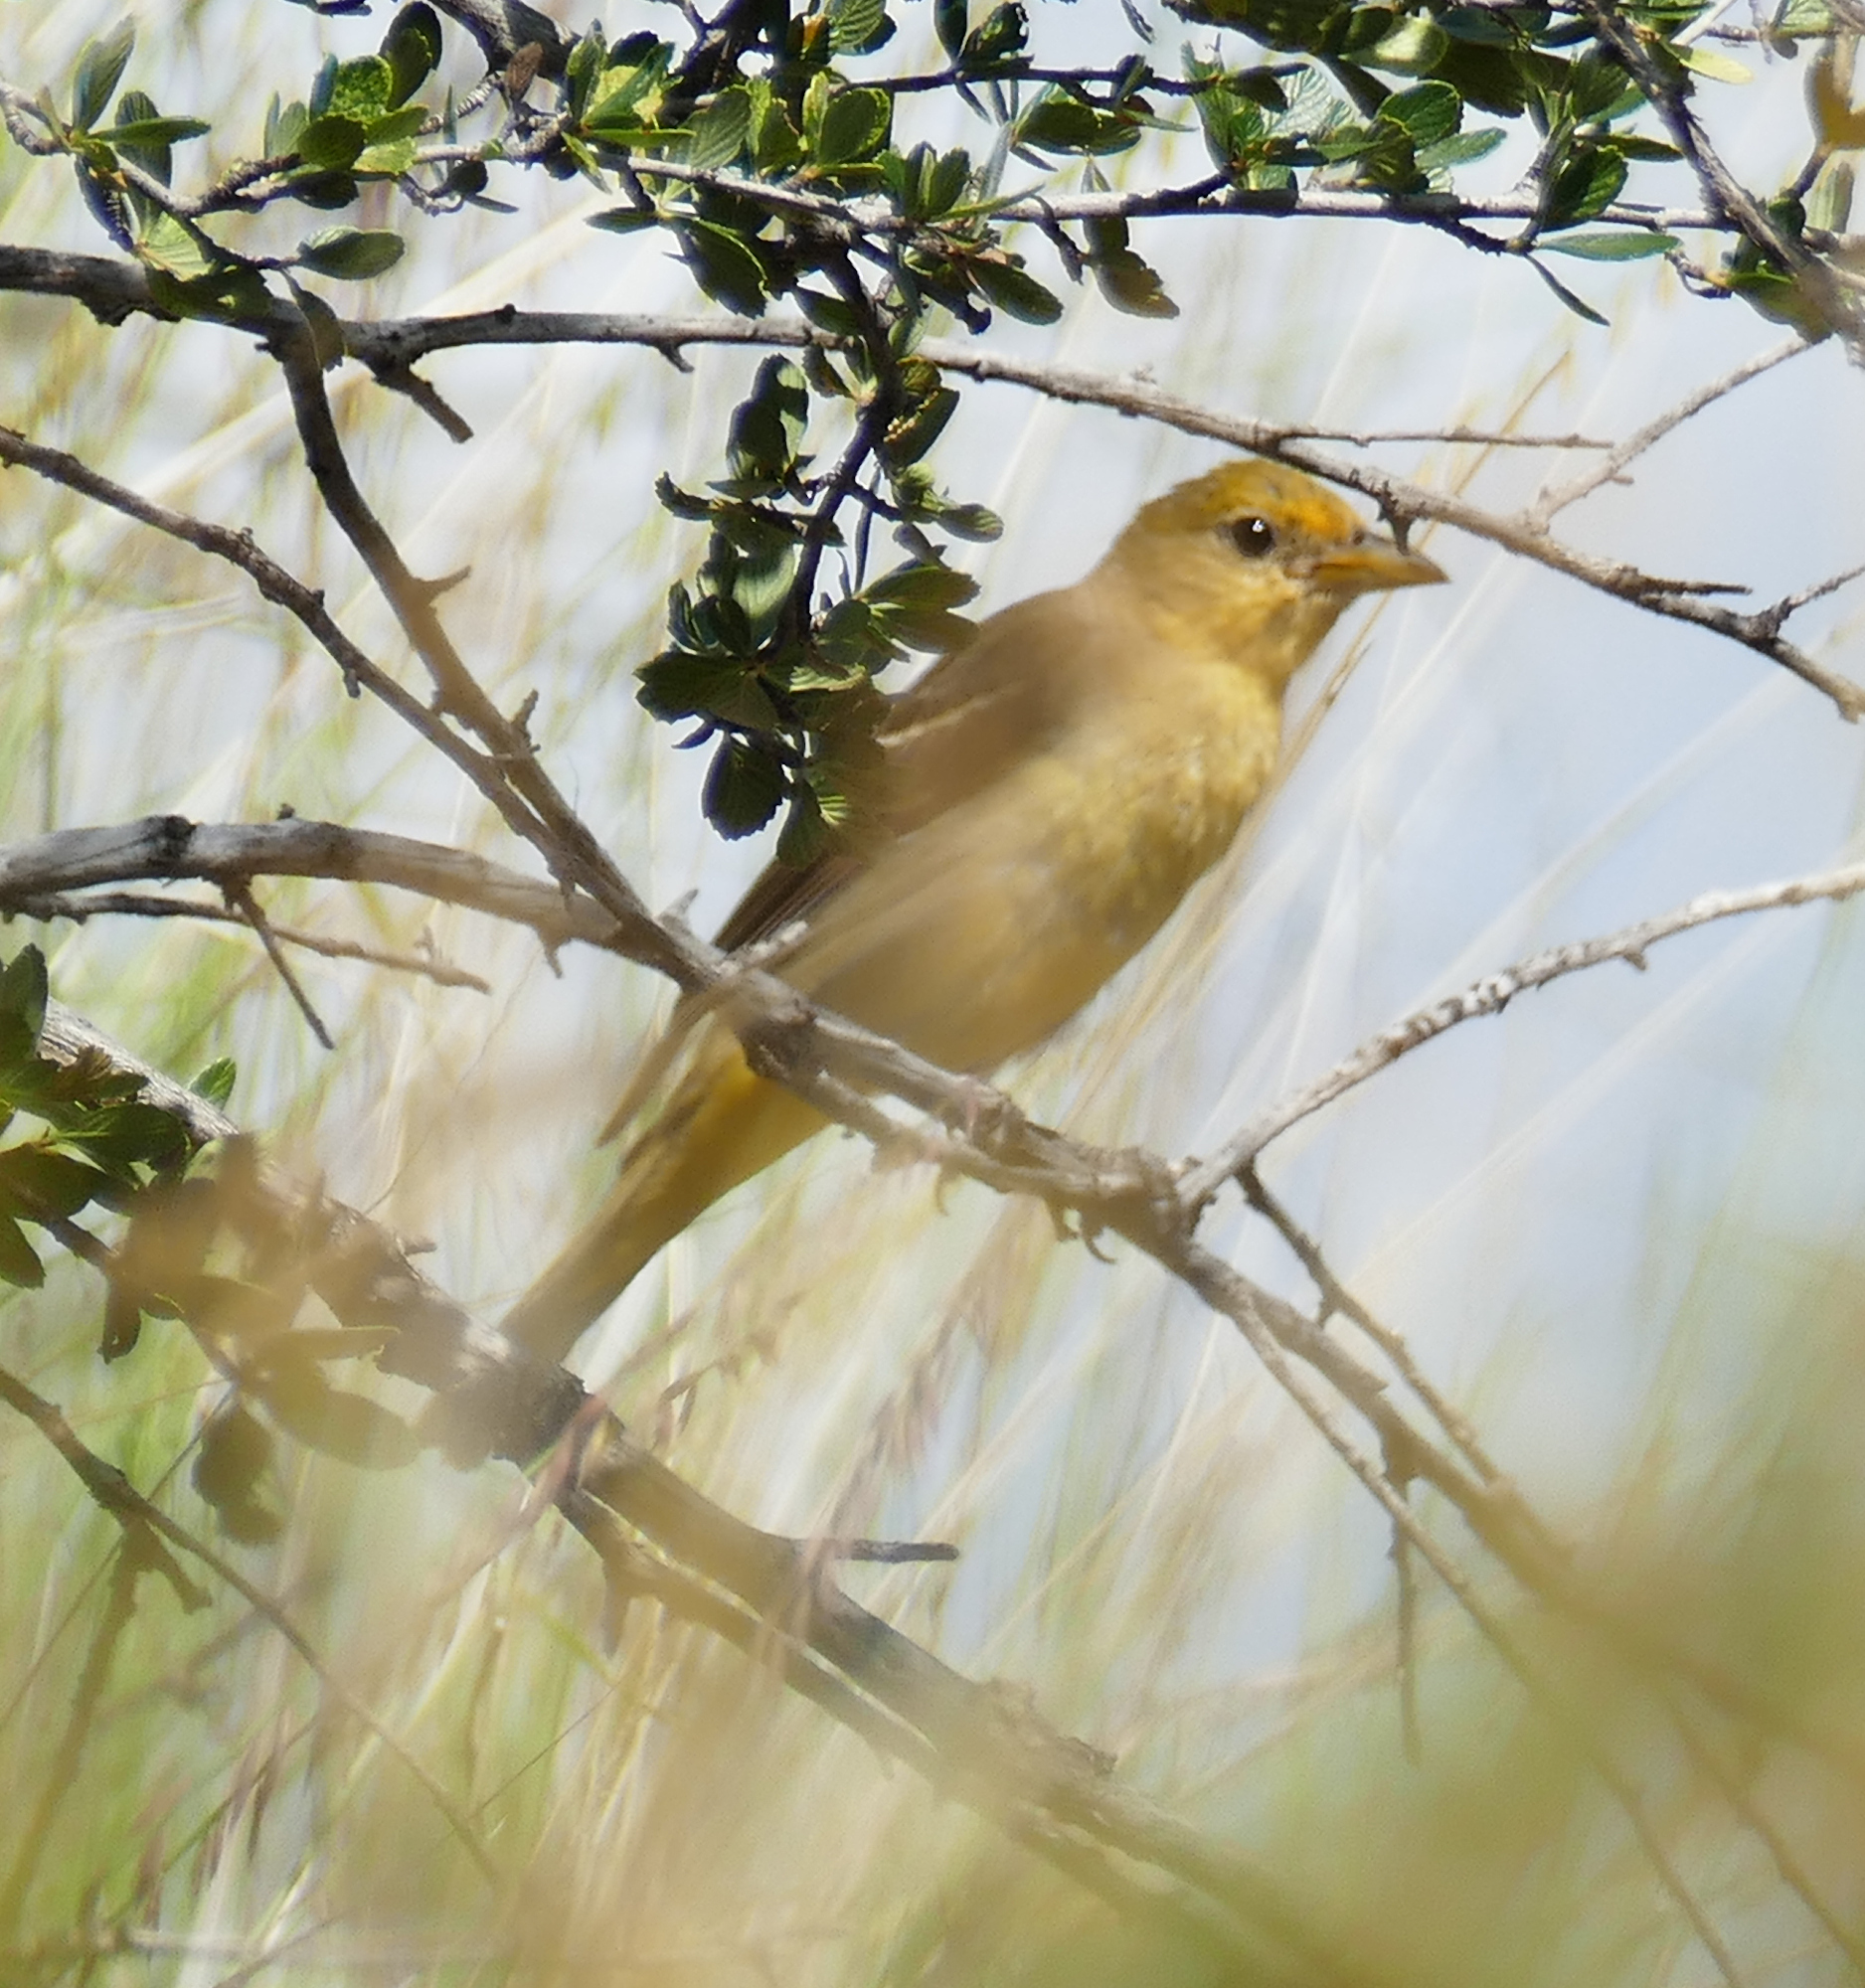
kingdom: Animalia
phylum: Chordata
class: Aves
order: Passeriformes
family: Cardinalidae
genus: Piranga
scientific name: Piranga ludoviciana
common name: Western tanager
